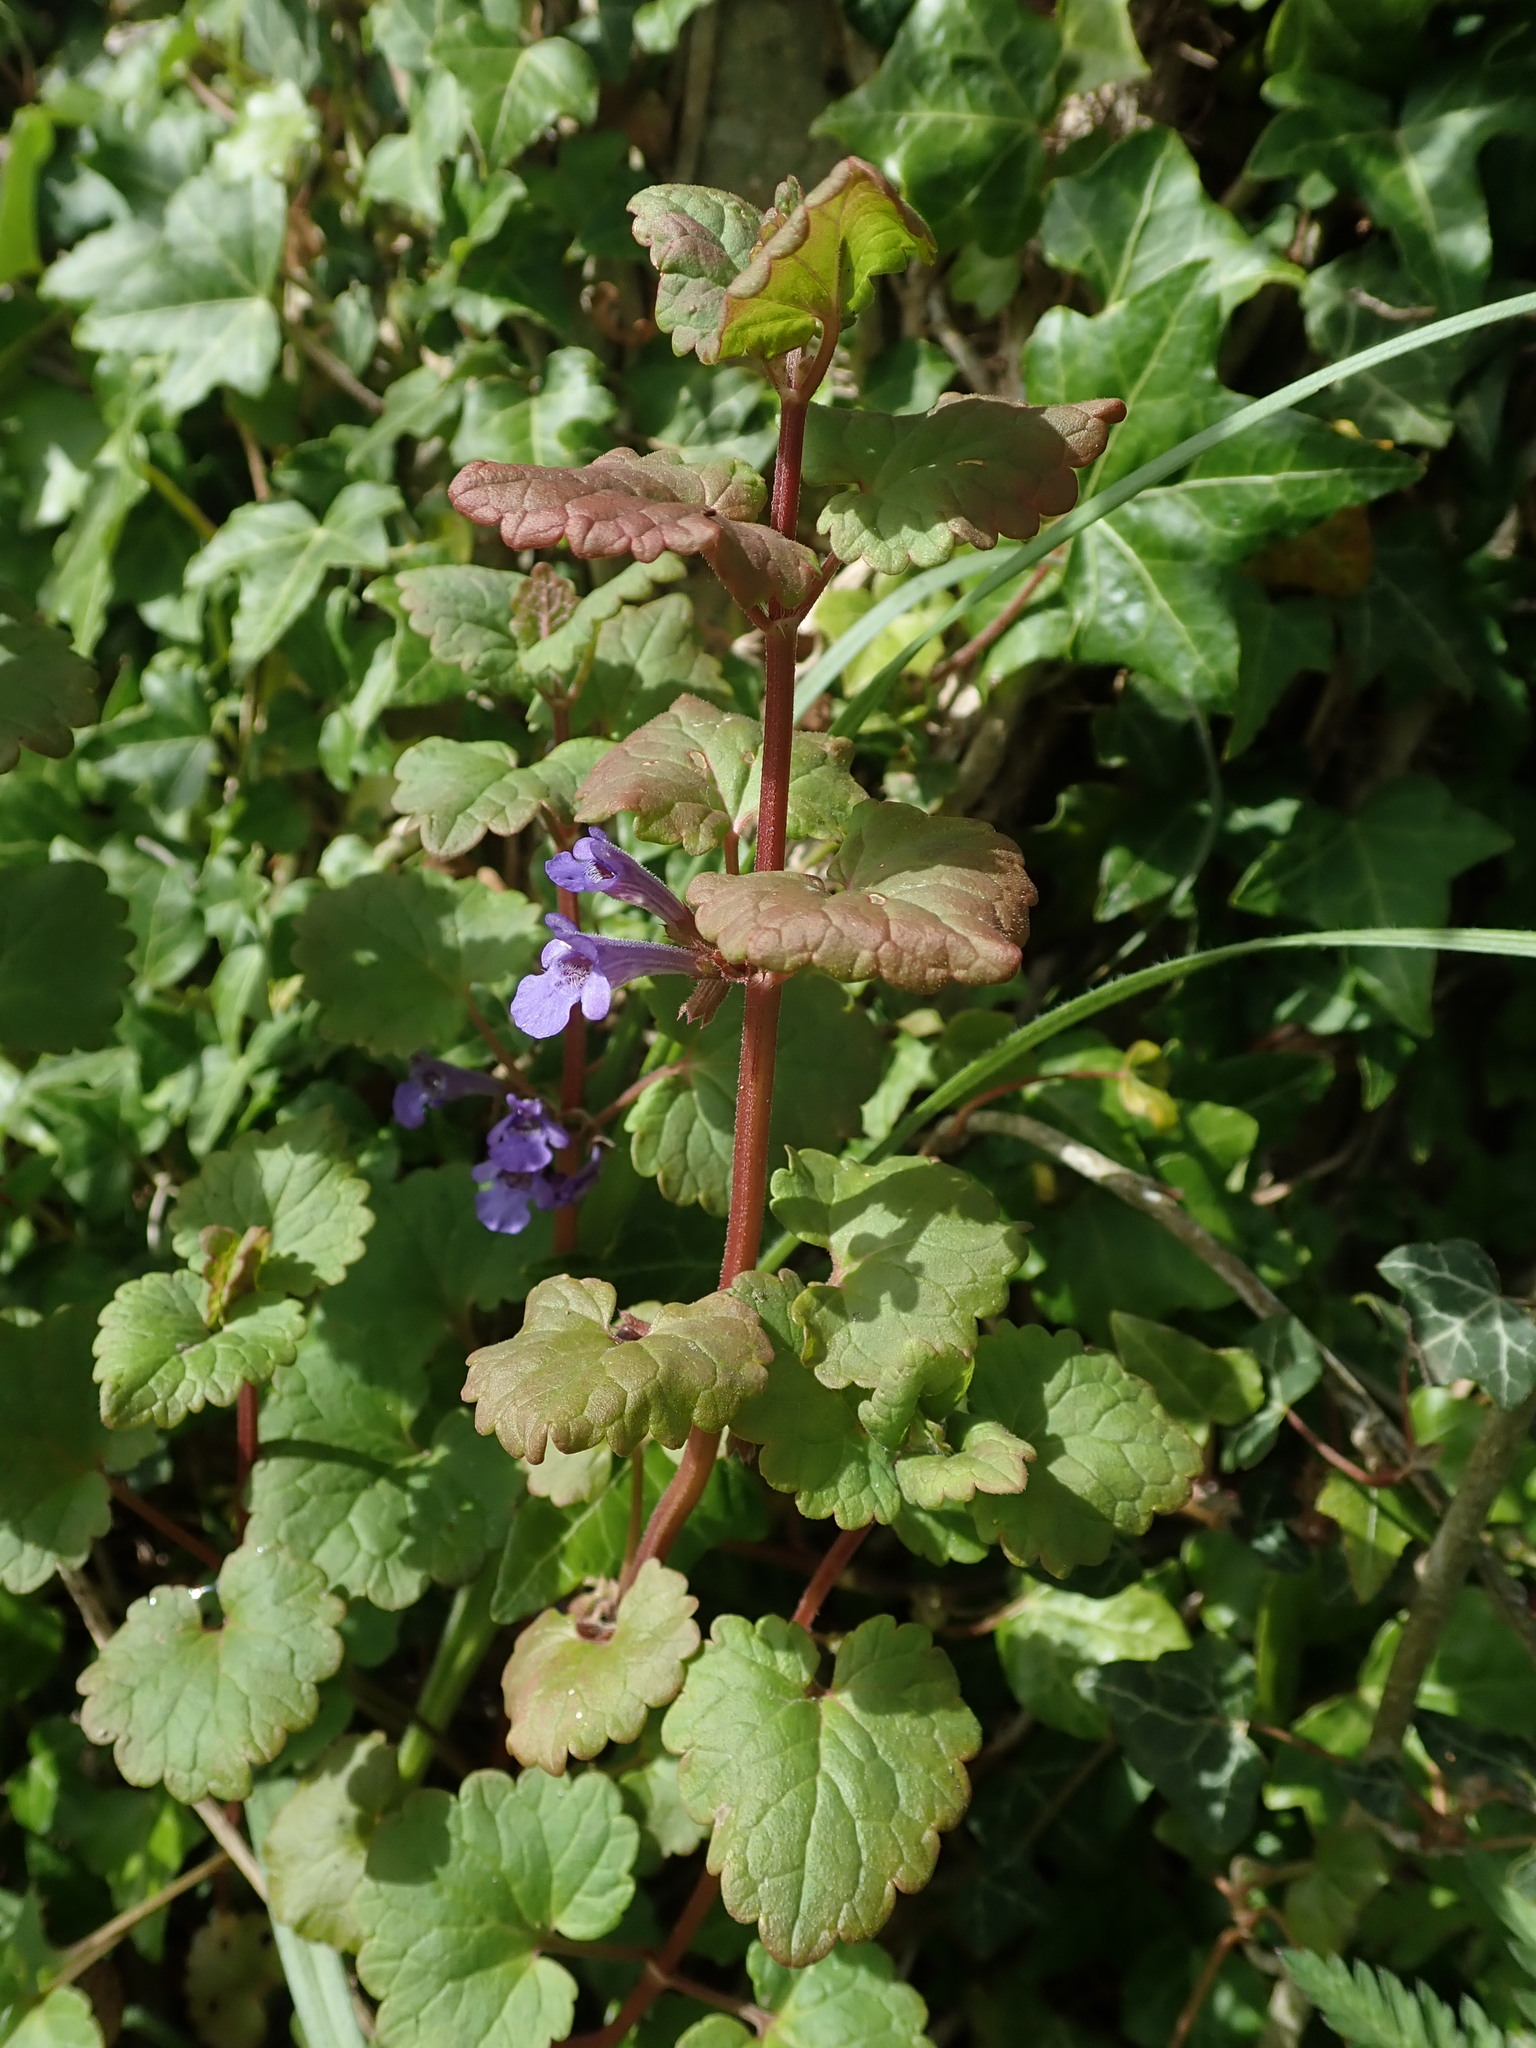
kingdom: Plantae
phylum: Tracheophyta
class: Magnoliopsida
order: Lamiales
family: Lamiaceae
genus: Glechoma
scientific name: Glechoma hederacea
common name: Ground ivy
